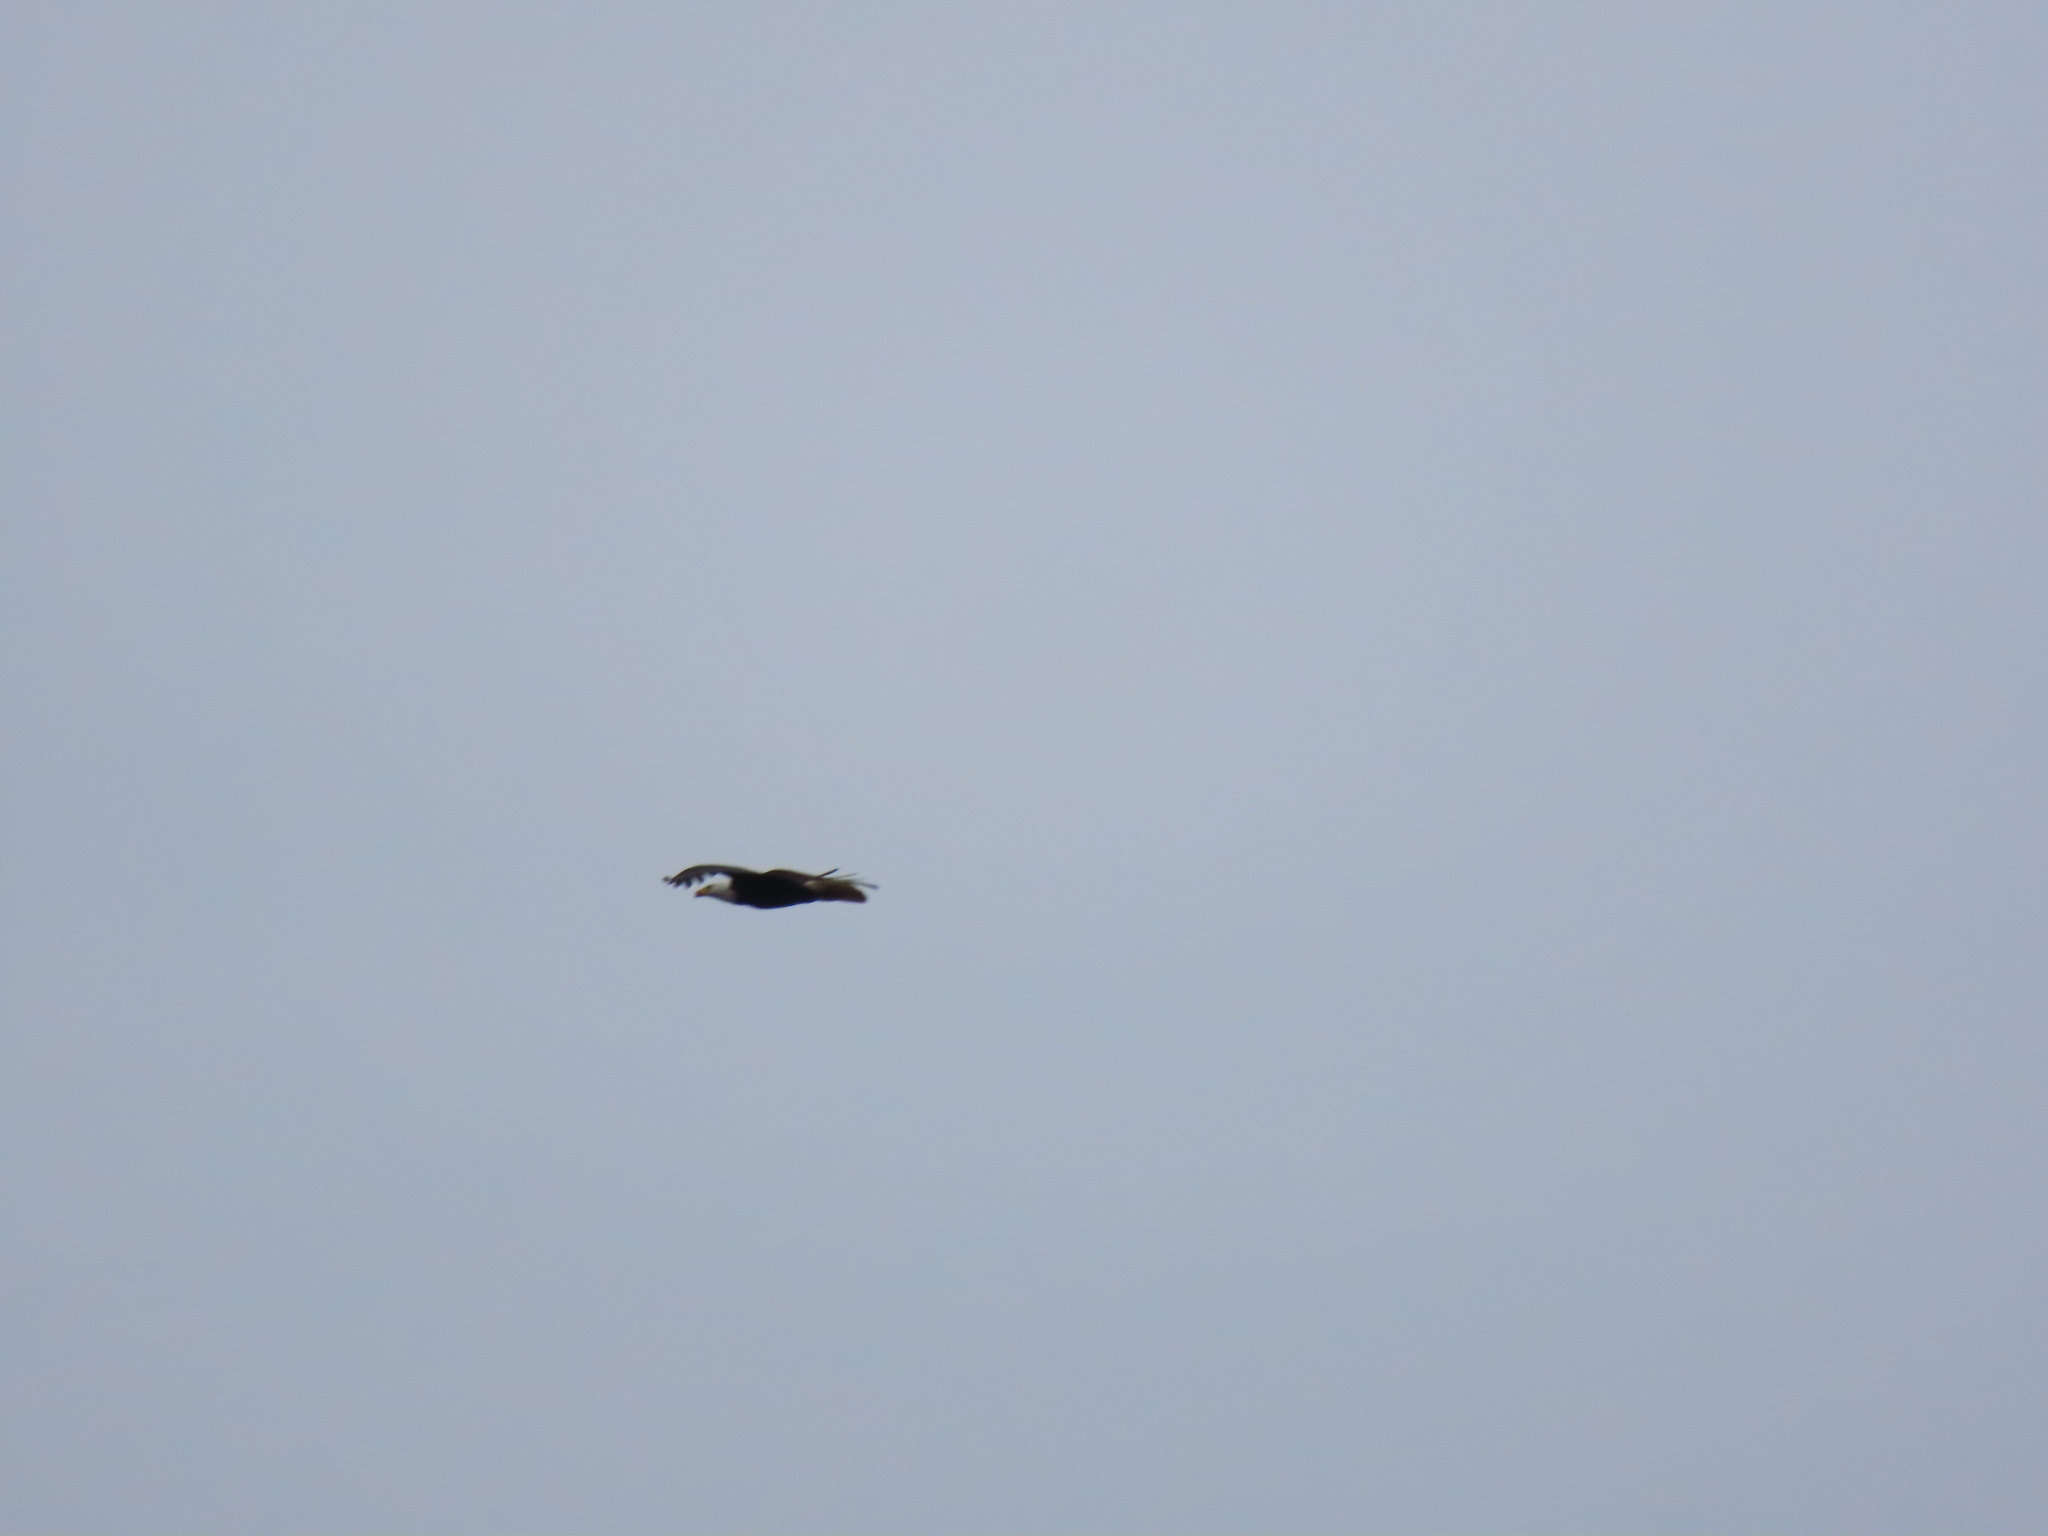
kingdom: Animalia
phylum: Chordata
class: Aves
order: Accipitriformes
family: Accipitridae
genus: Haliaeetus
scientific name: Haliaeetus leucocephalus
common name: Bald eagle
